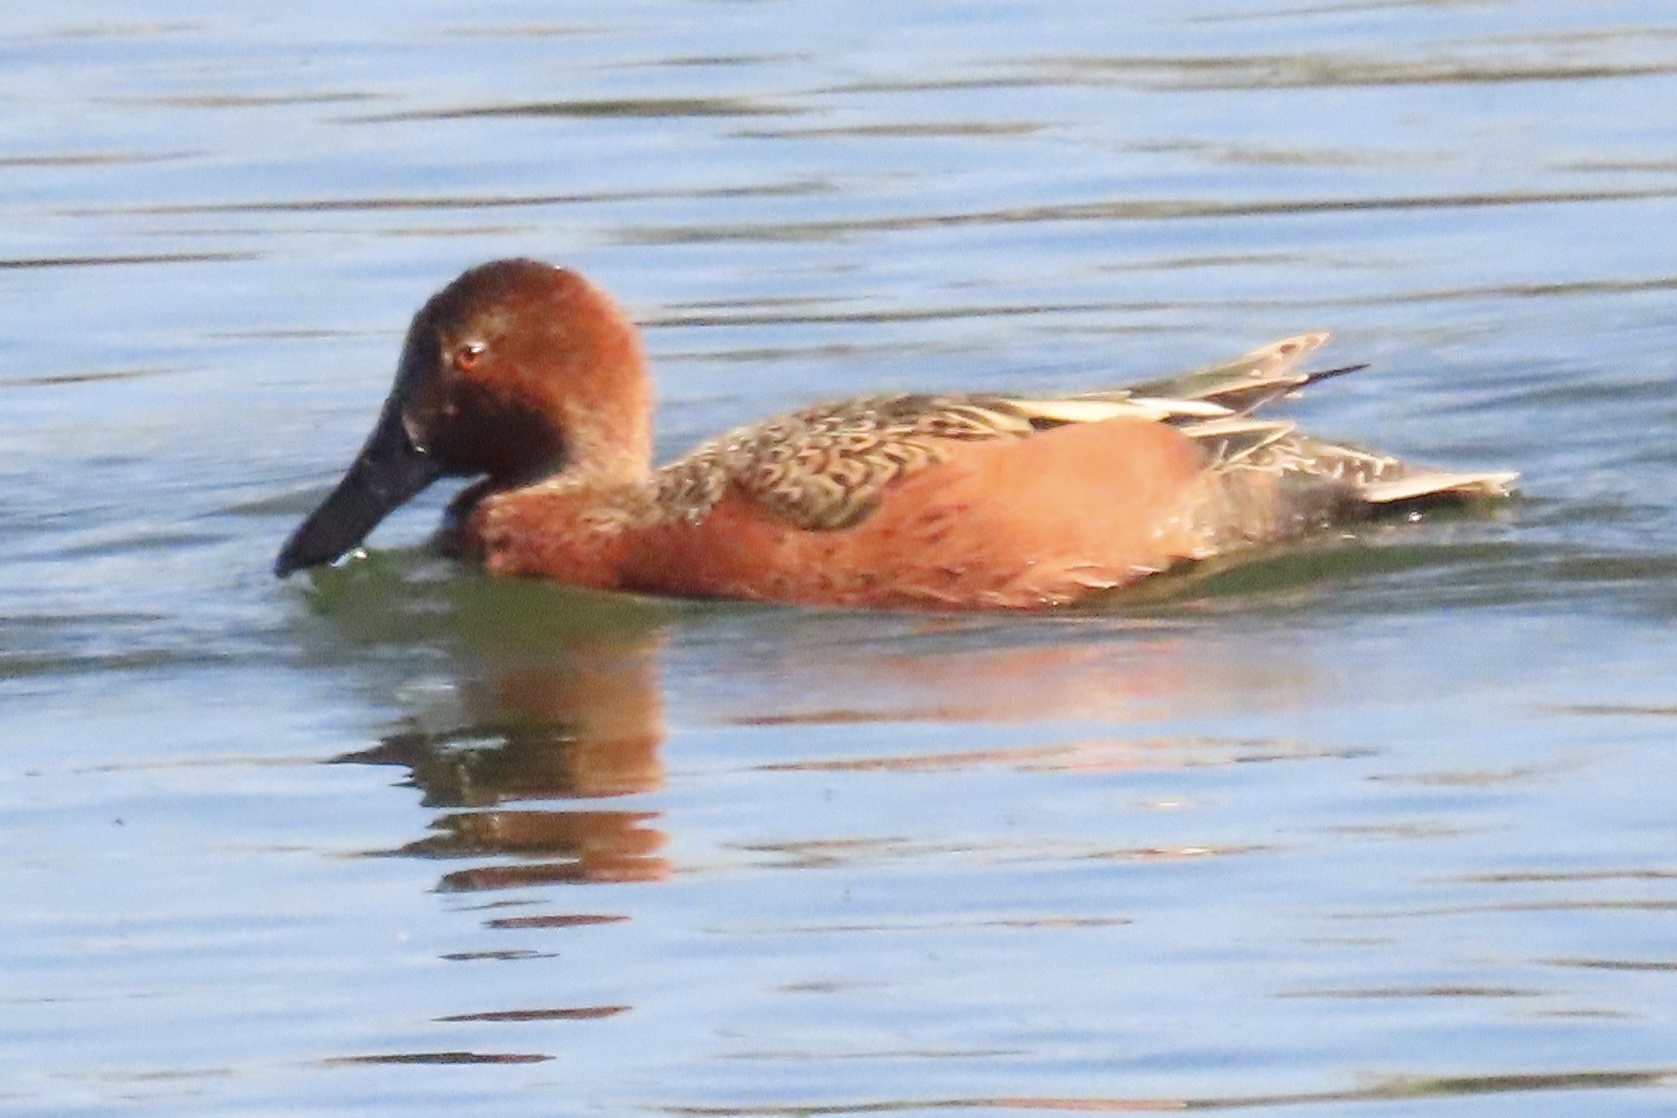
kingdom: Animalia
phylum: Chordata
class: Aves
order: Anseriformes
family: Anatidae
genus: Spatula
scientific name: Spatula cyanoptera
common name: Cinnamon teal
